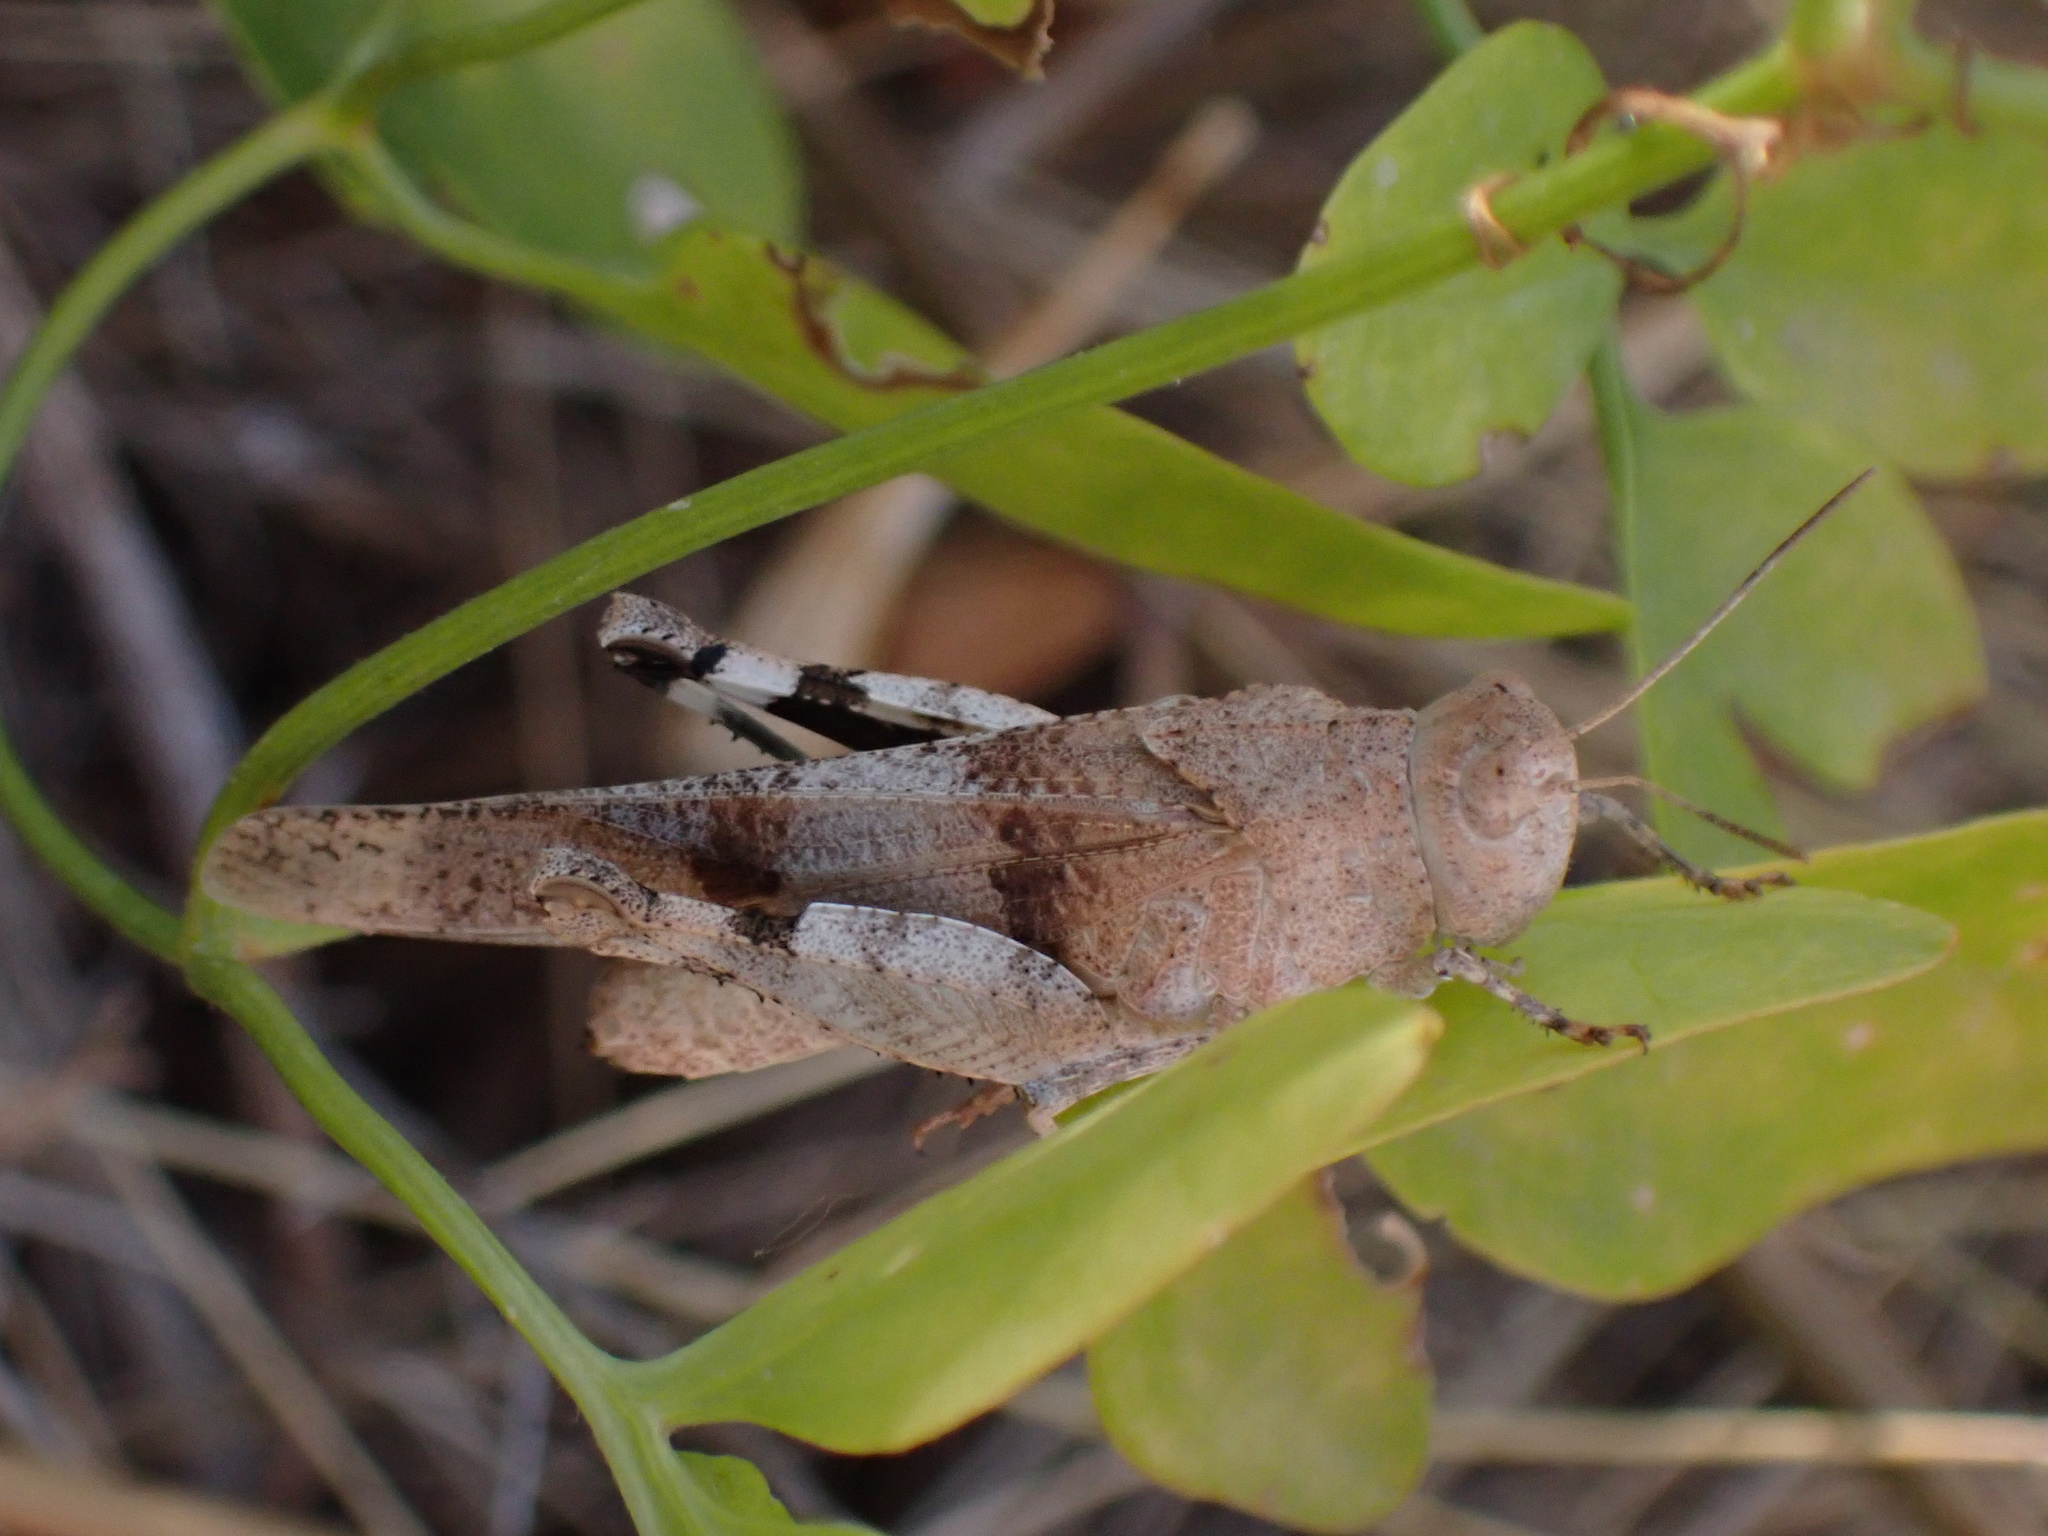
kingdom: Animalia
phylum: Arthropoda
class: Insecta
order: Orthoptera
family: Acrididae
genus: Oedipoda
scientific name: Oedipoda caerulescens
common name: Blue-winged grasshopper
